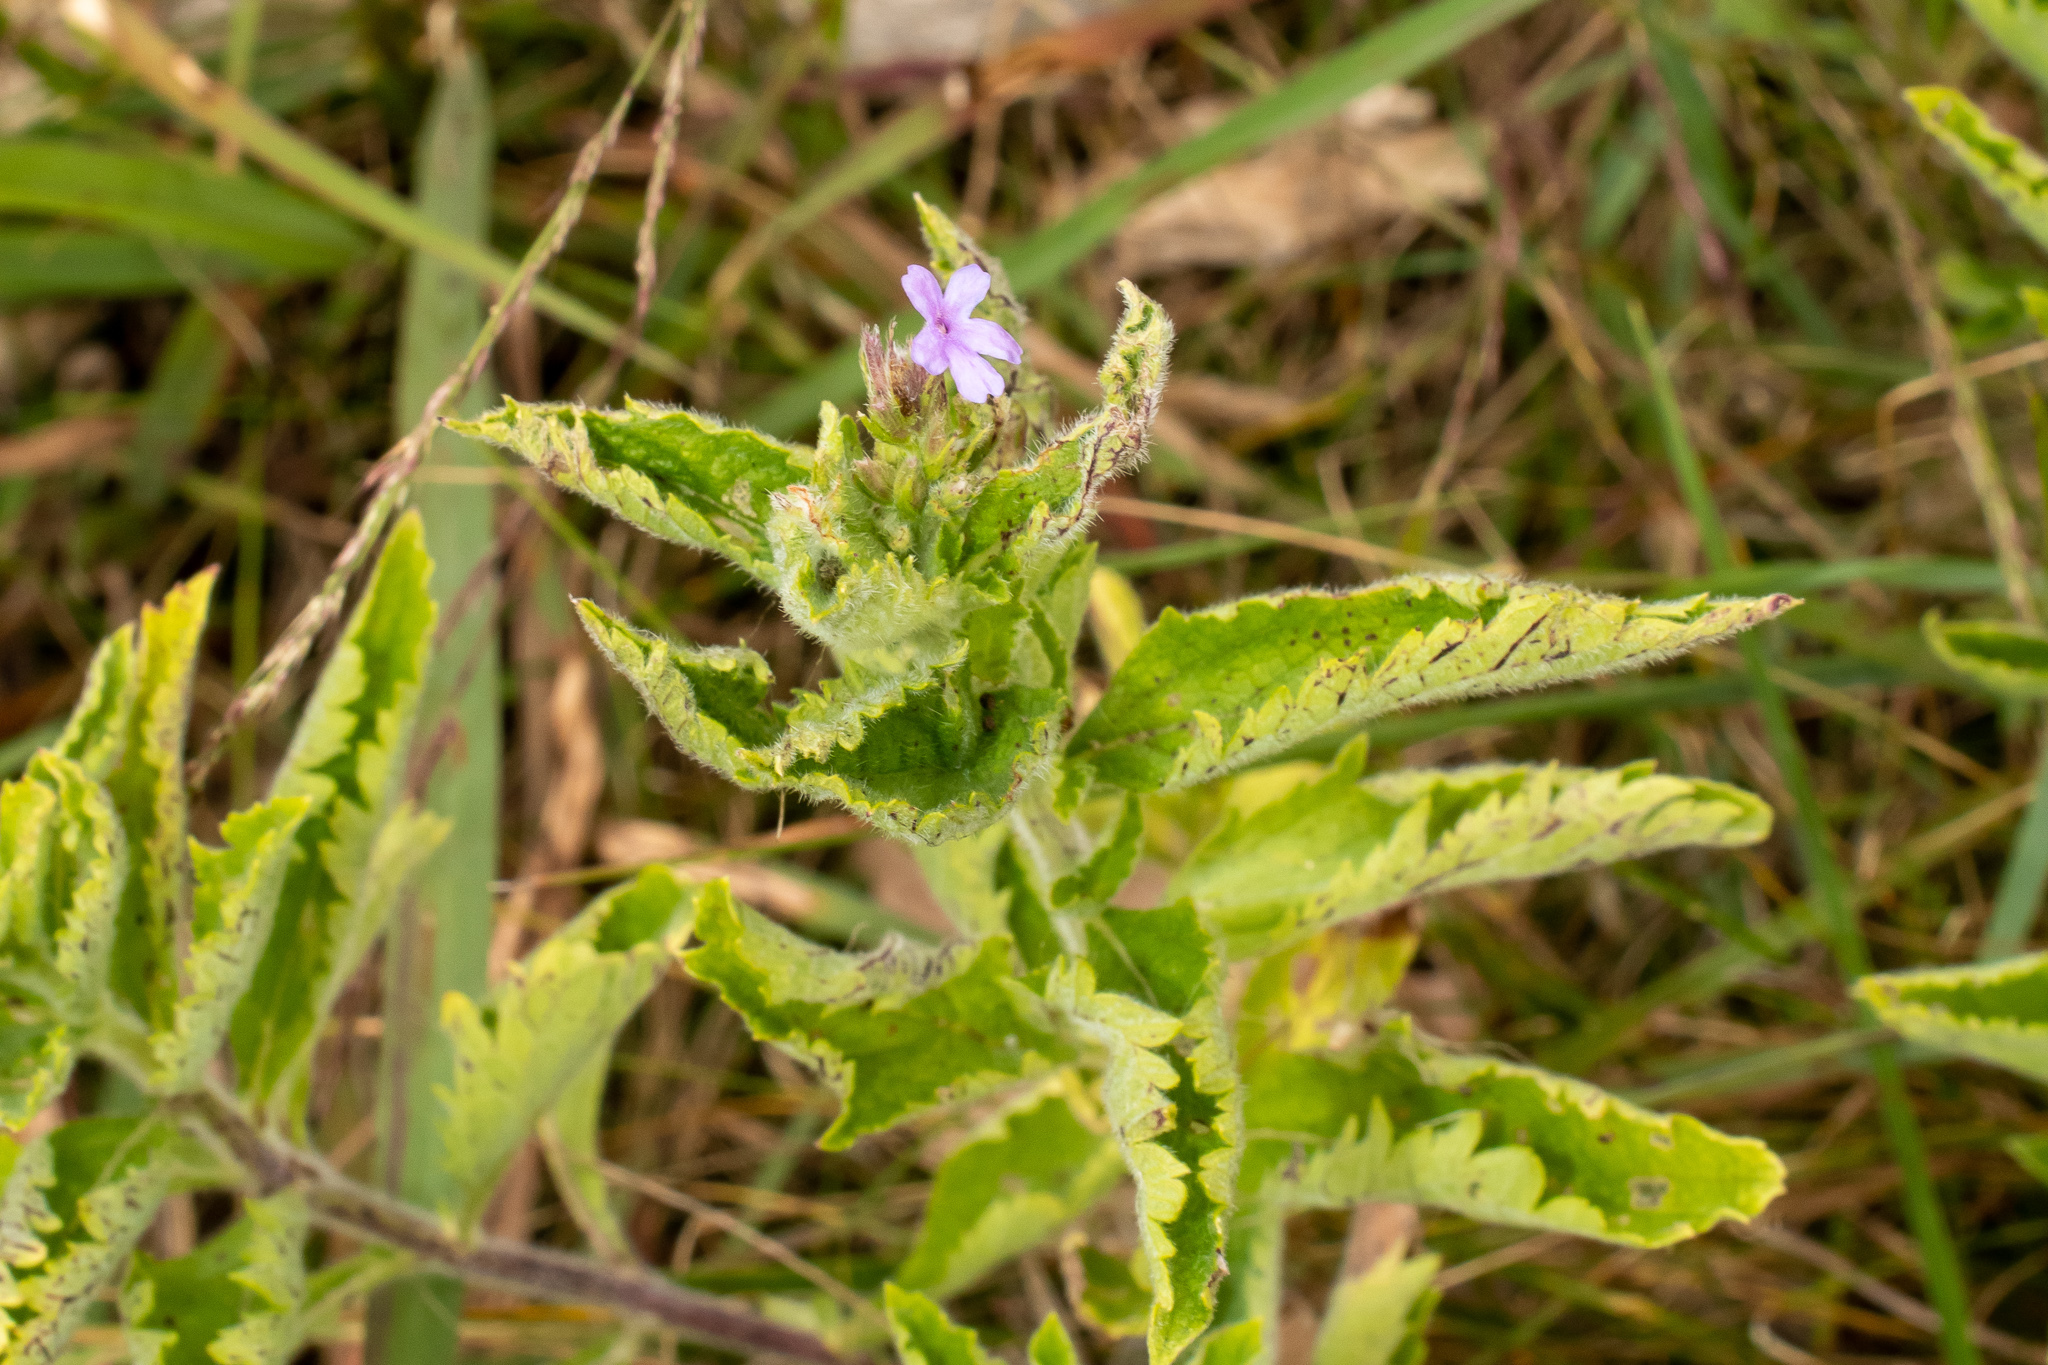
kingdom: Plantae
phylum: Tracheophyta
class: Magnoliopsida
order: Lamiales
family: Verbenaceae
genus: Verbena
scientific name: Verbena stricta
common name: Hoary vervain
